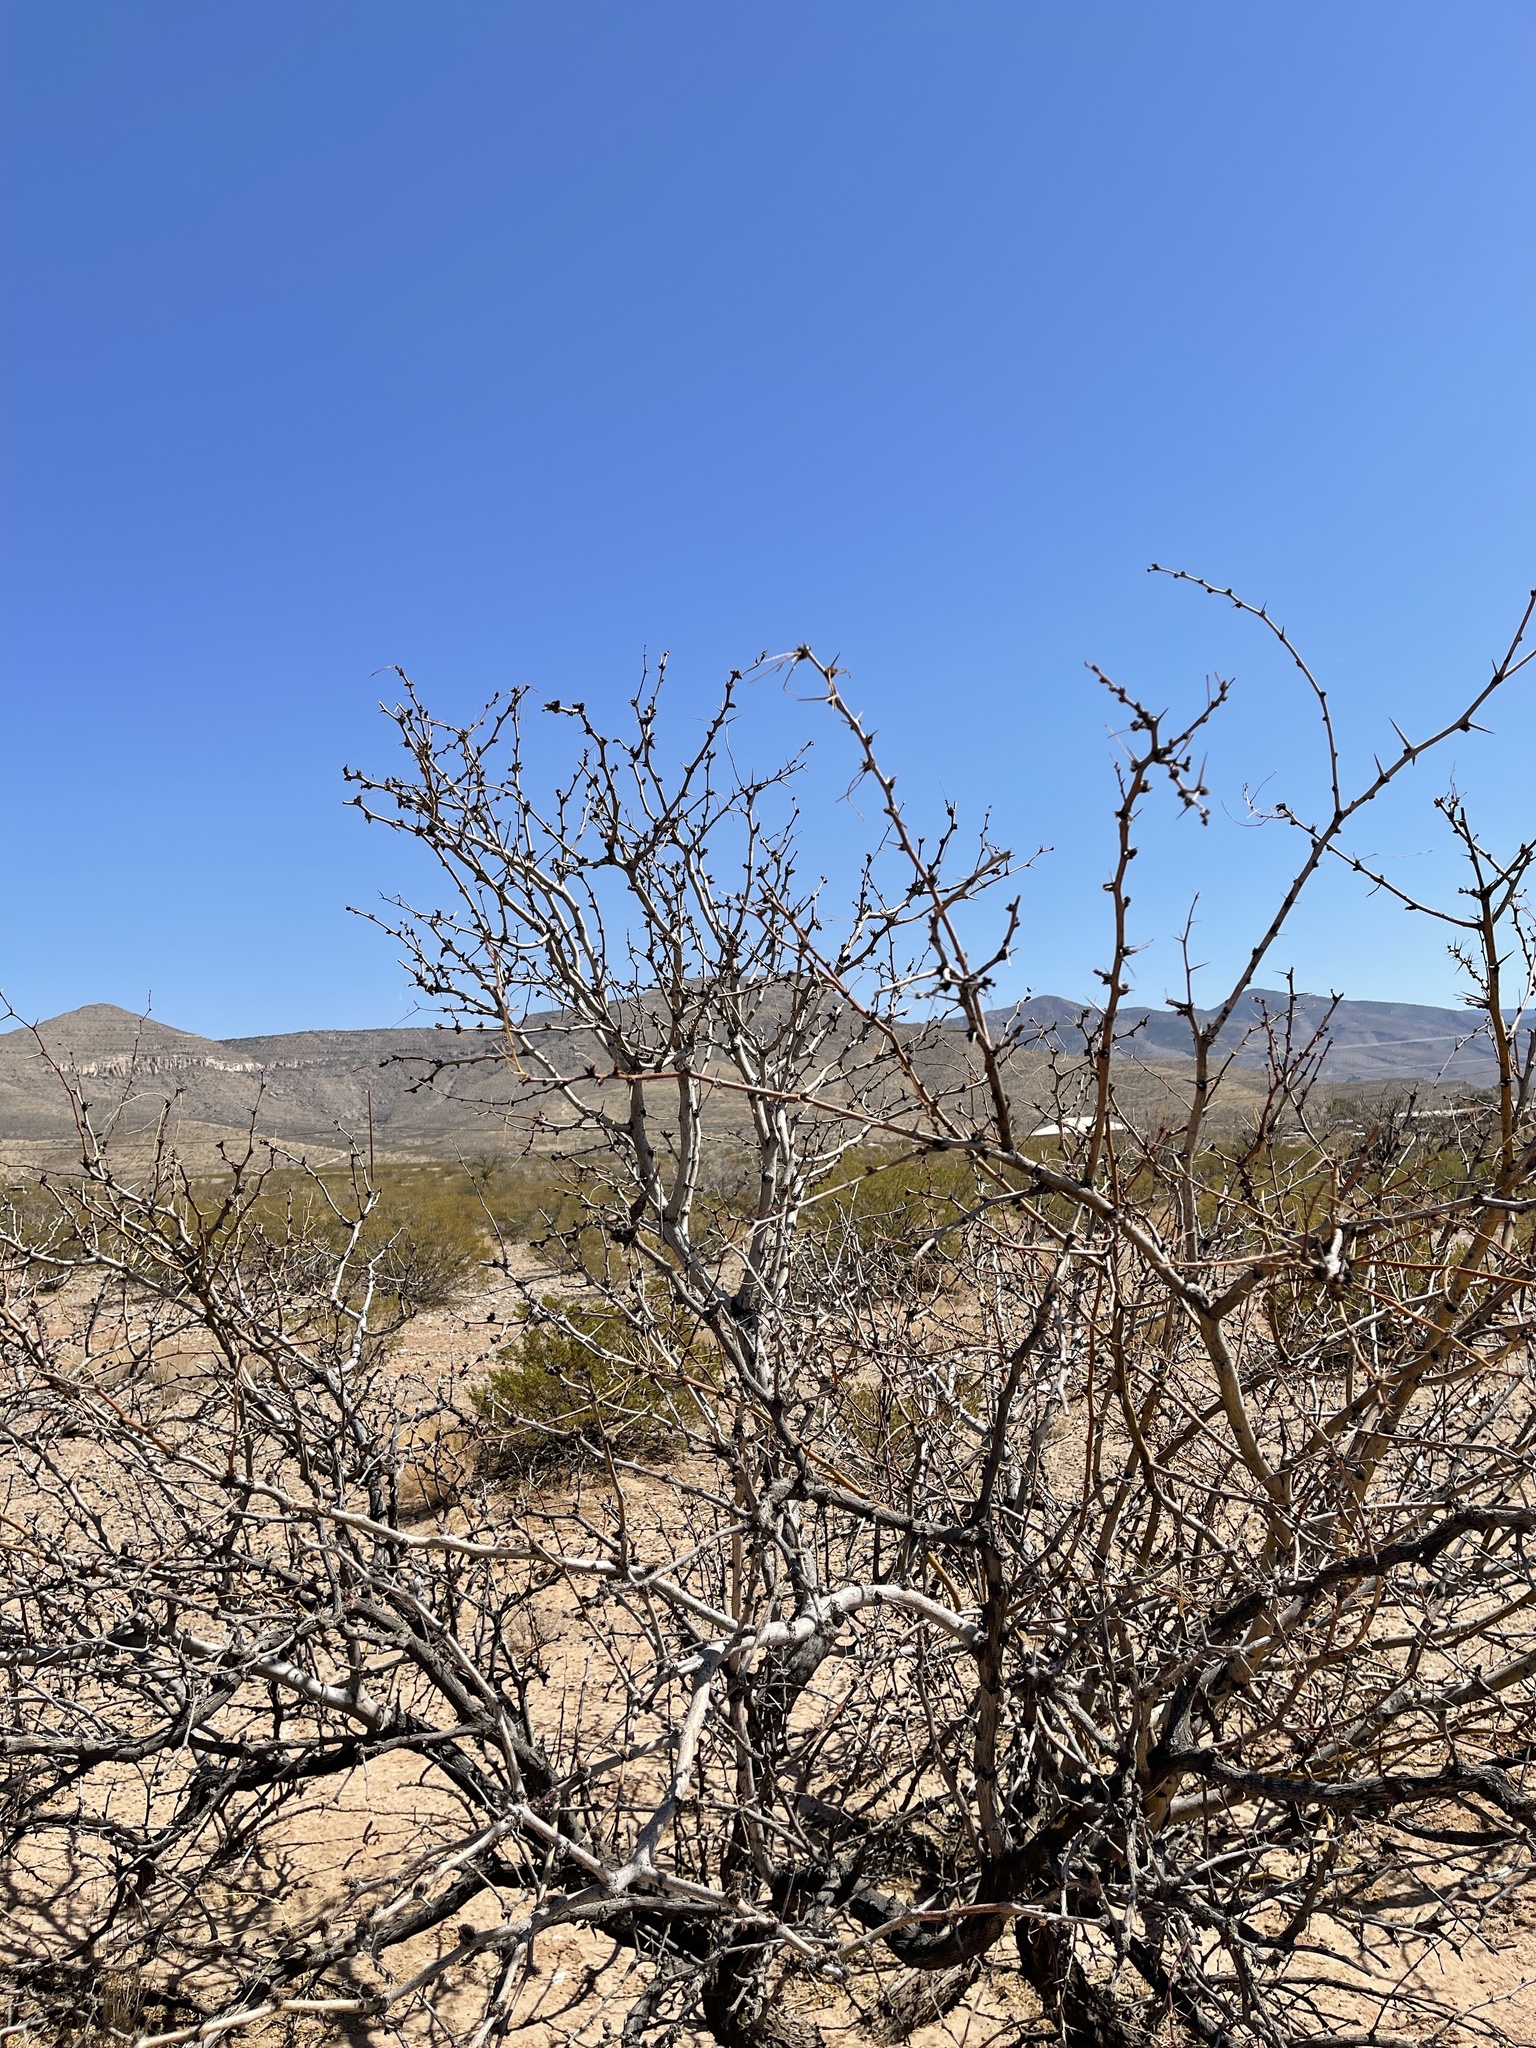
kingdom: Plantae
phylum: Tracheophyta
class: Magnoliopsida
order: Fabales
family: Fabaceae
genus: Prosopis
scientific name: Prosopis glandulosa
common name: Honey mesquite
